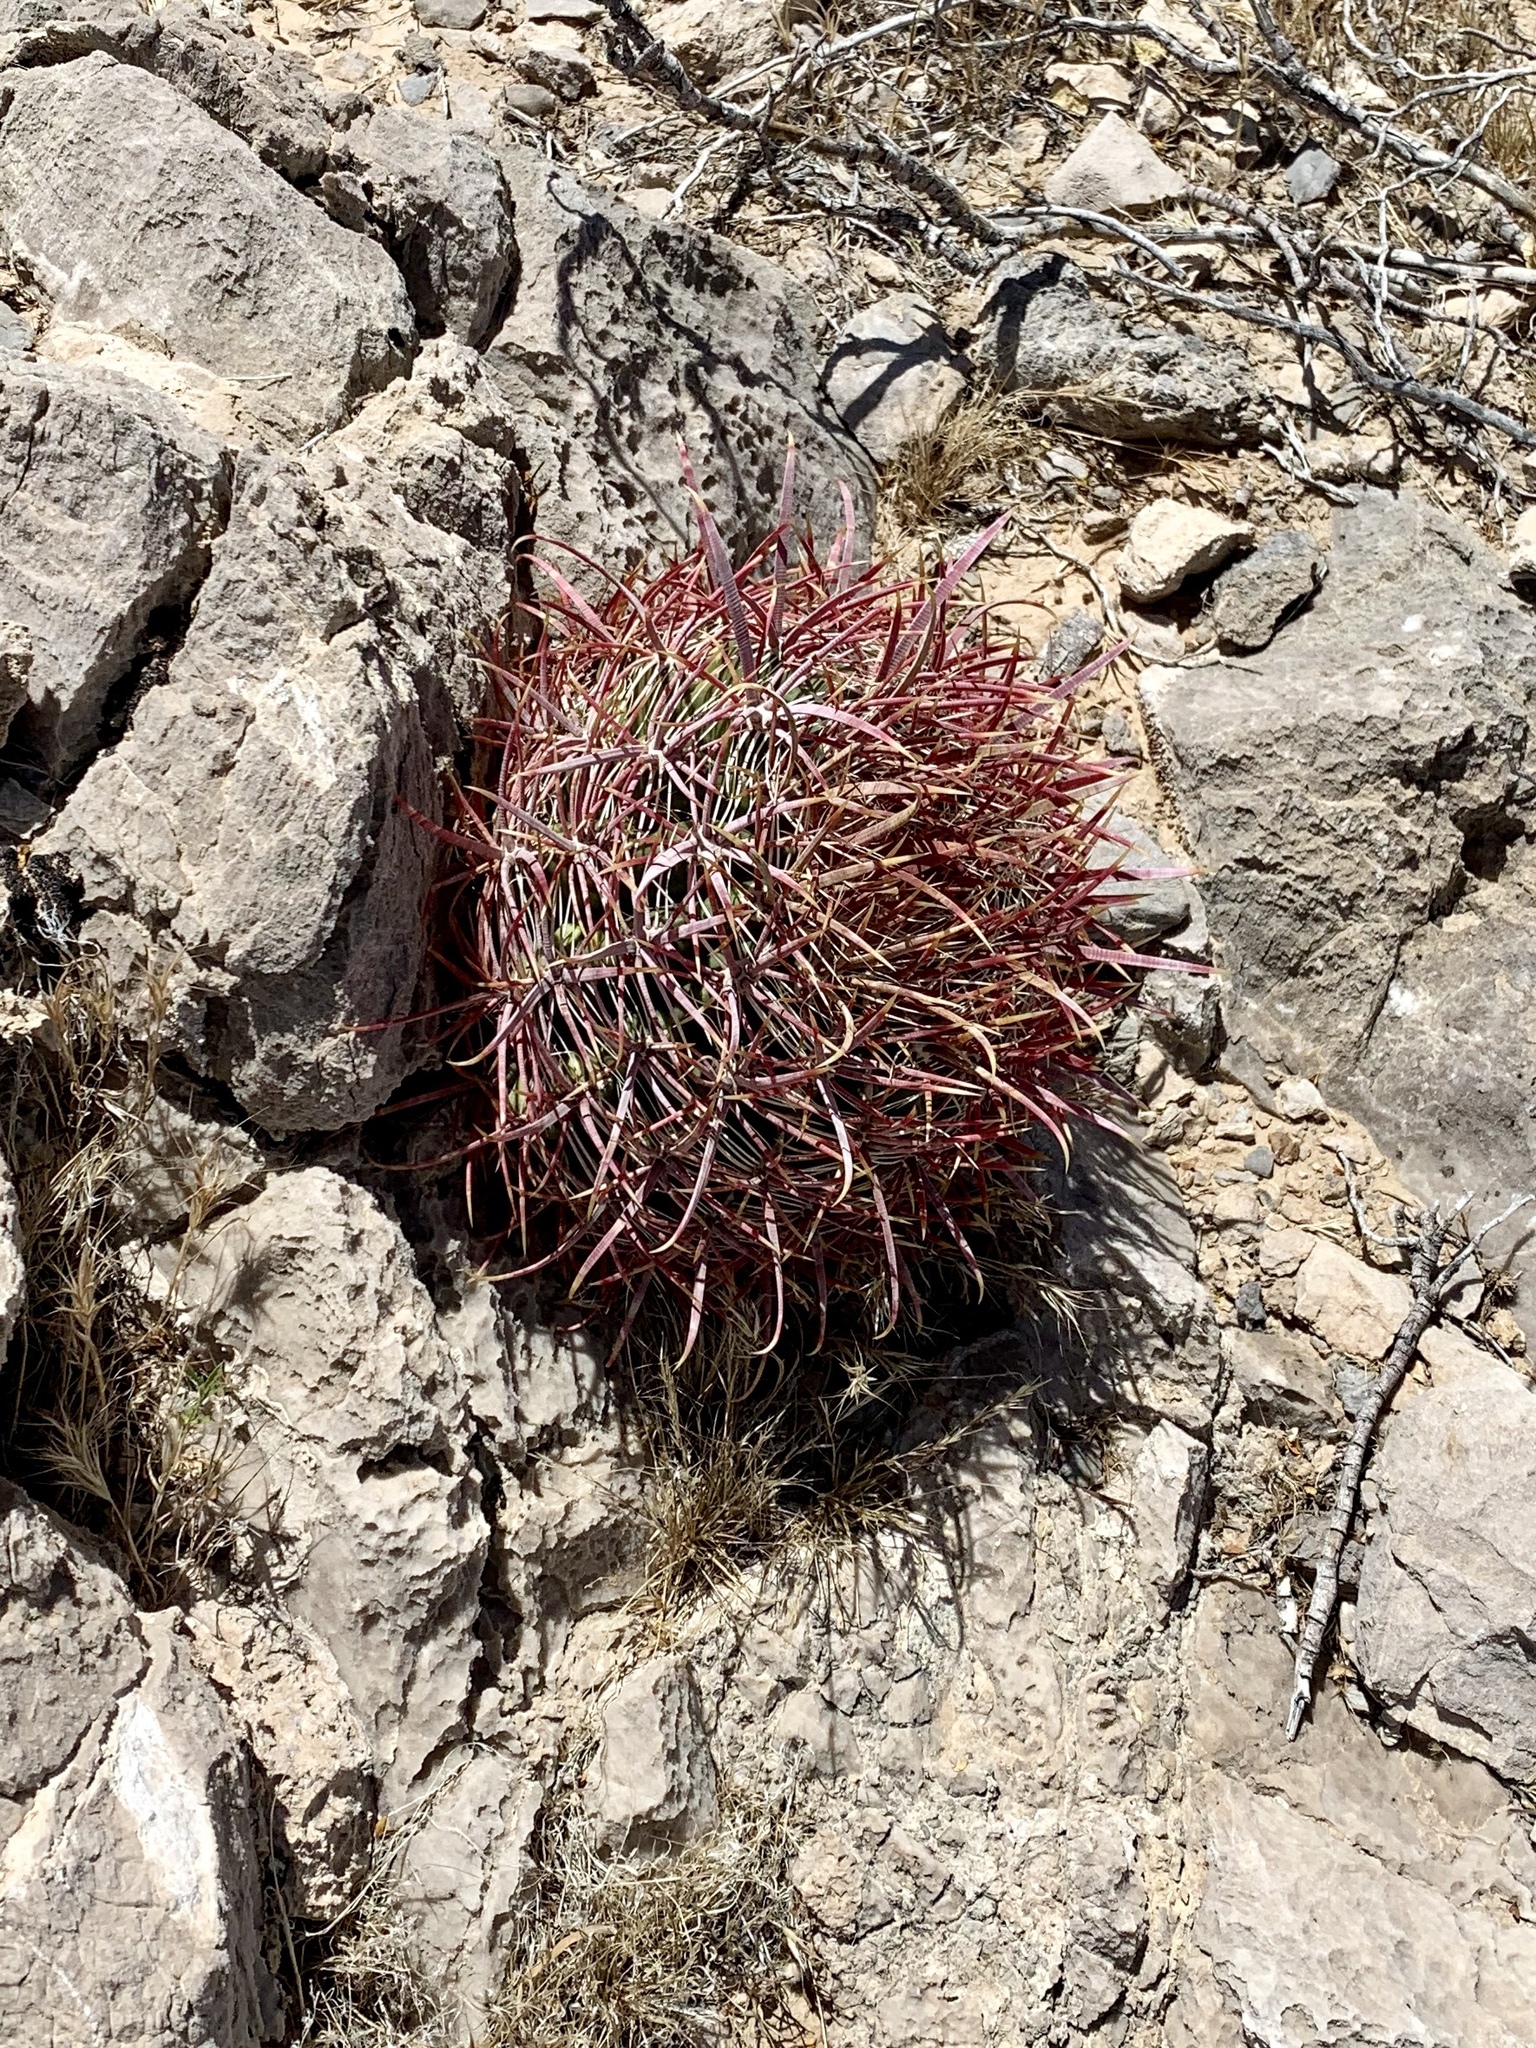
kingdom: Plantae
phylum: Tracheophyta
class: Magnoliopsida
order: Caryophyllales
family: Cactaceae
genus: Ferocactus
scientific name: Ferocactus cylindraceus
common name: California barrel cactus
